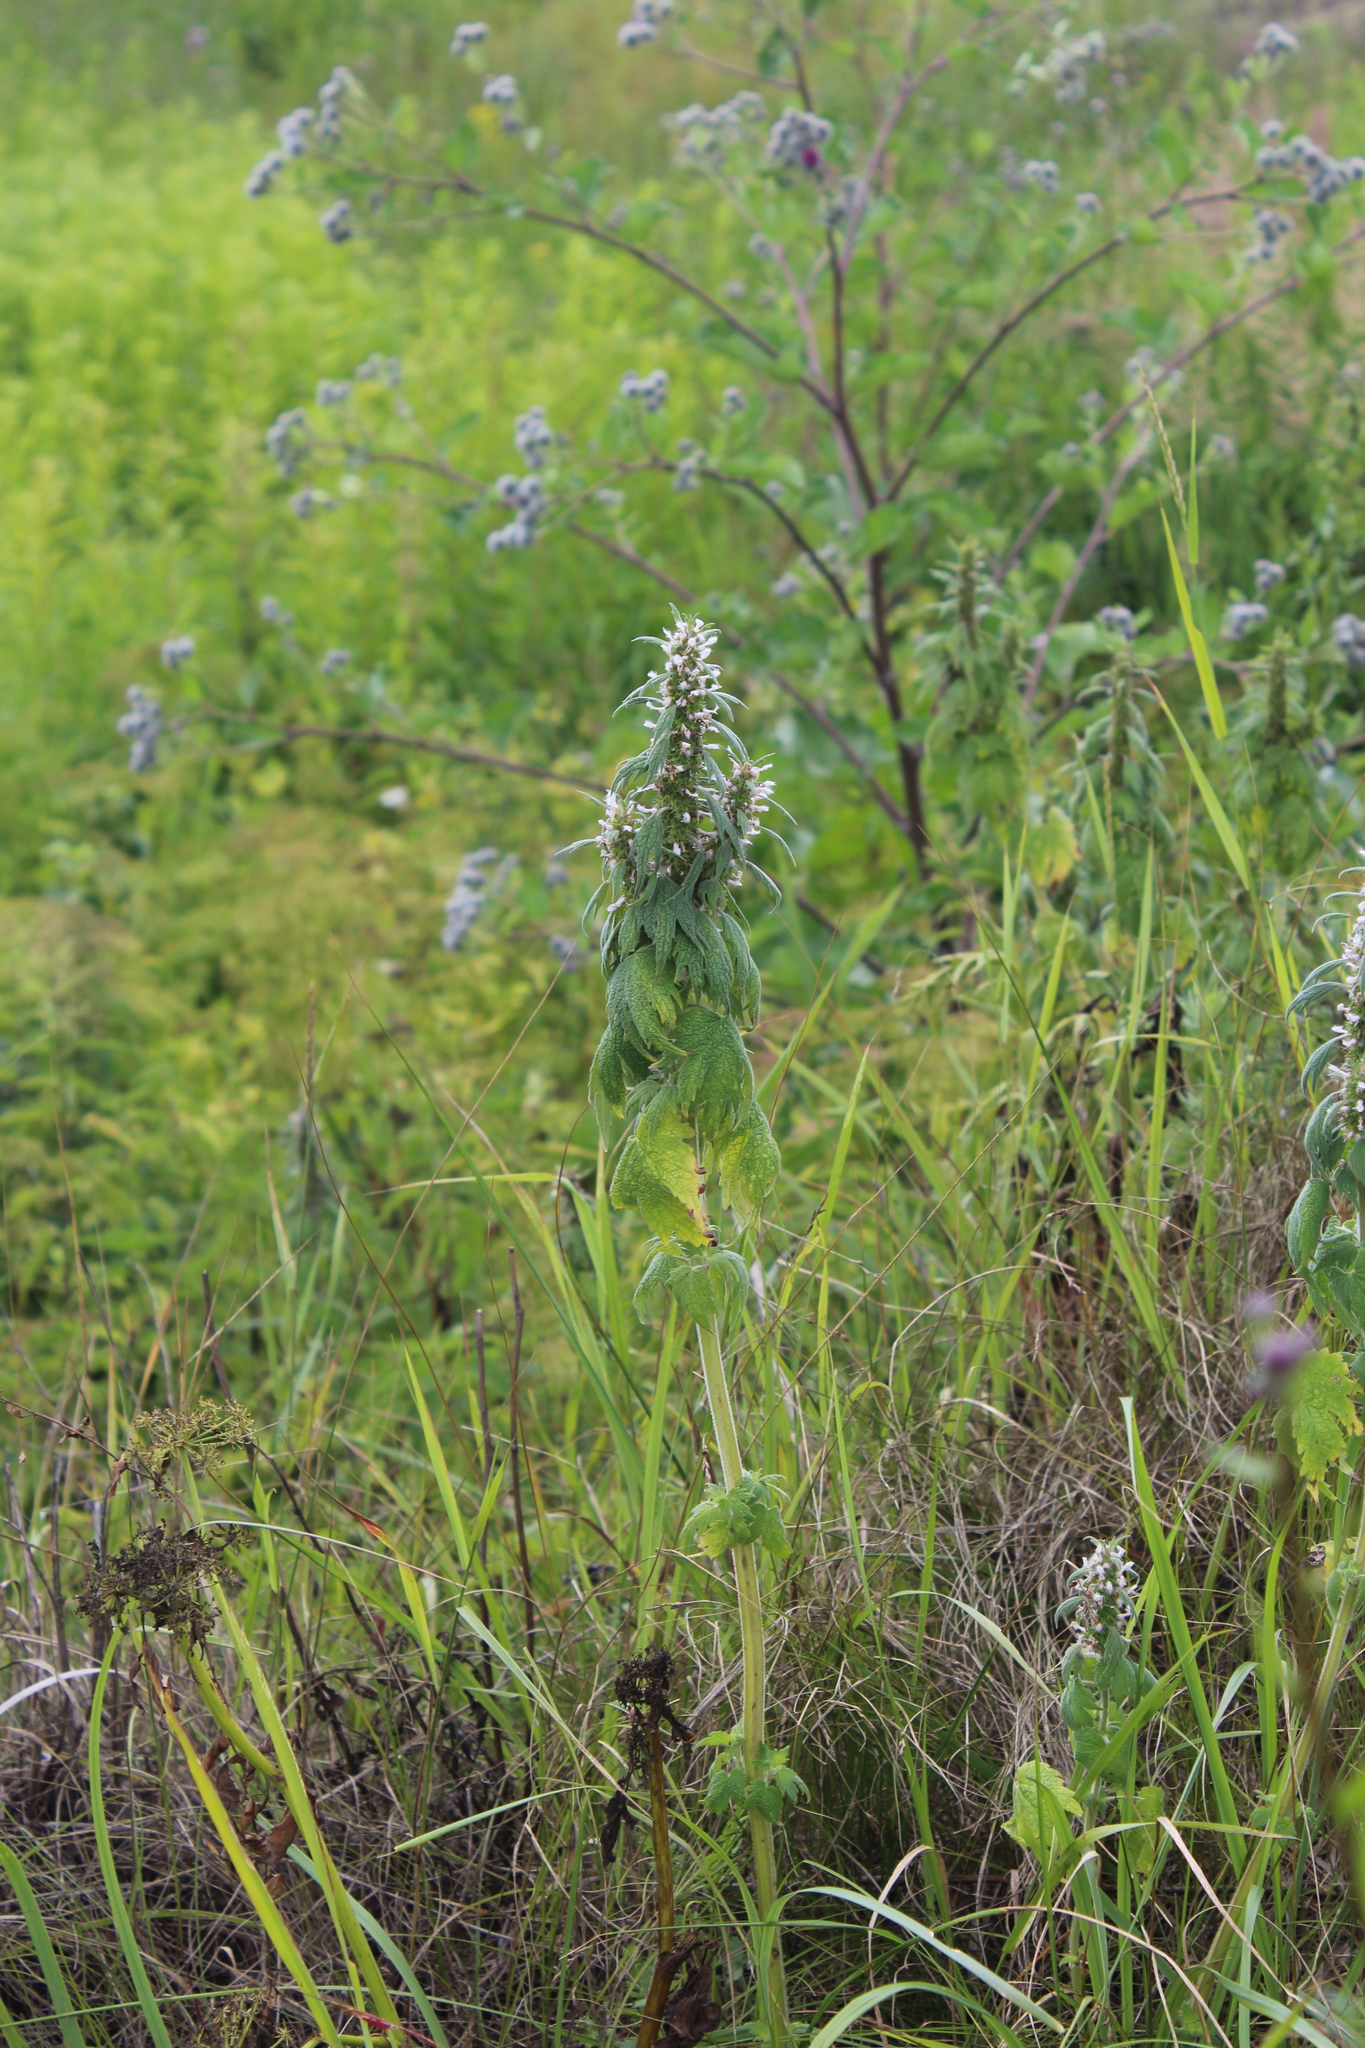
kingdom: Plantae
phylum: Tracheophyta
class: Magnoliopsida
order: Lamiales
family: Lamiaceae
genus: Leonurus
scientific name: Leonurus quinquelobatus
